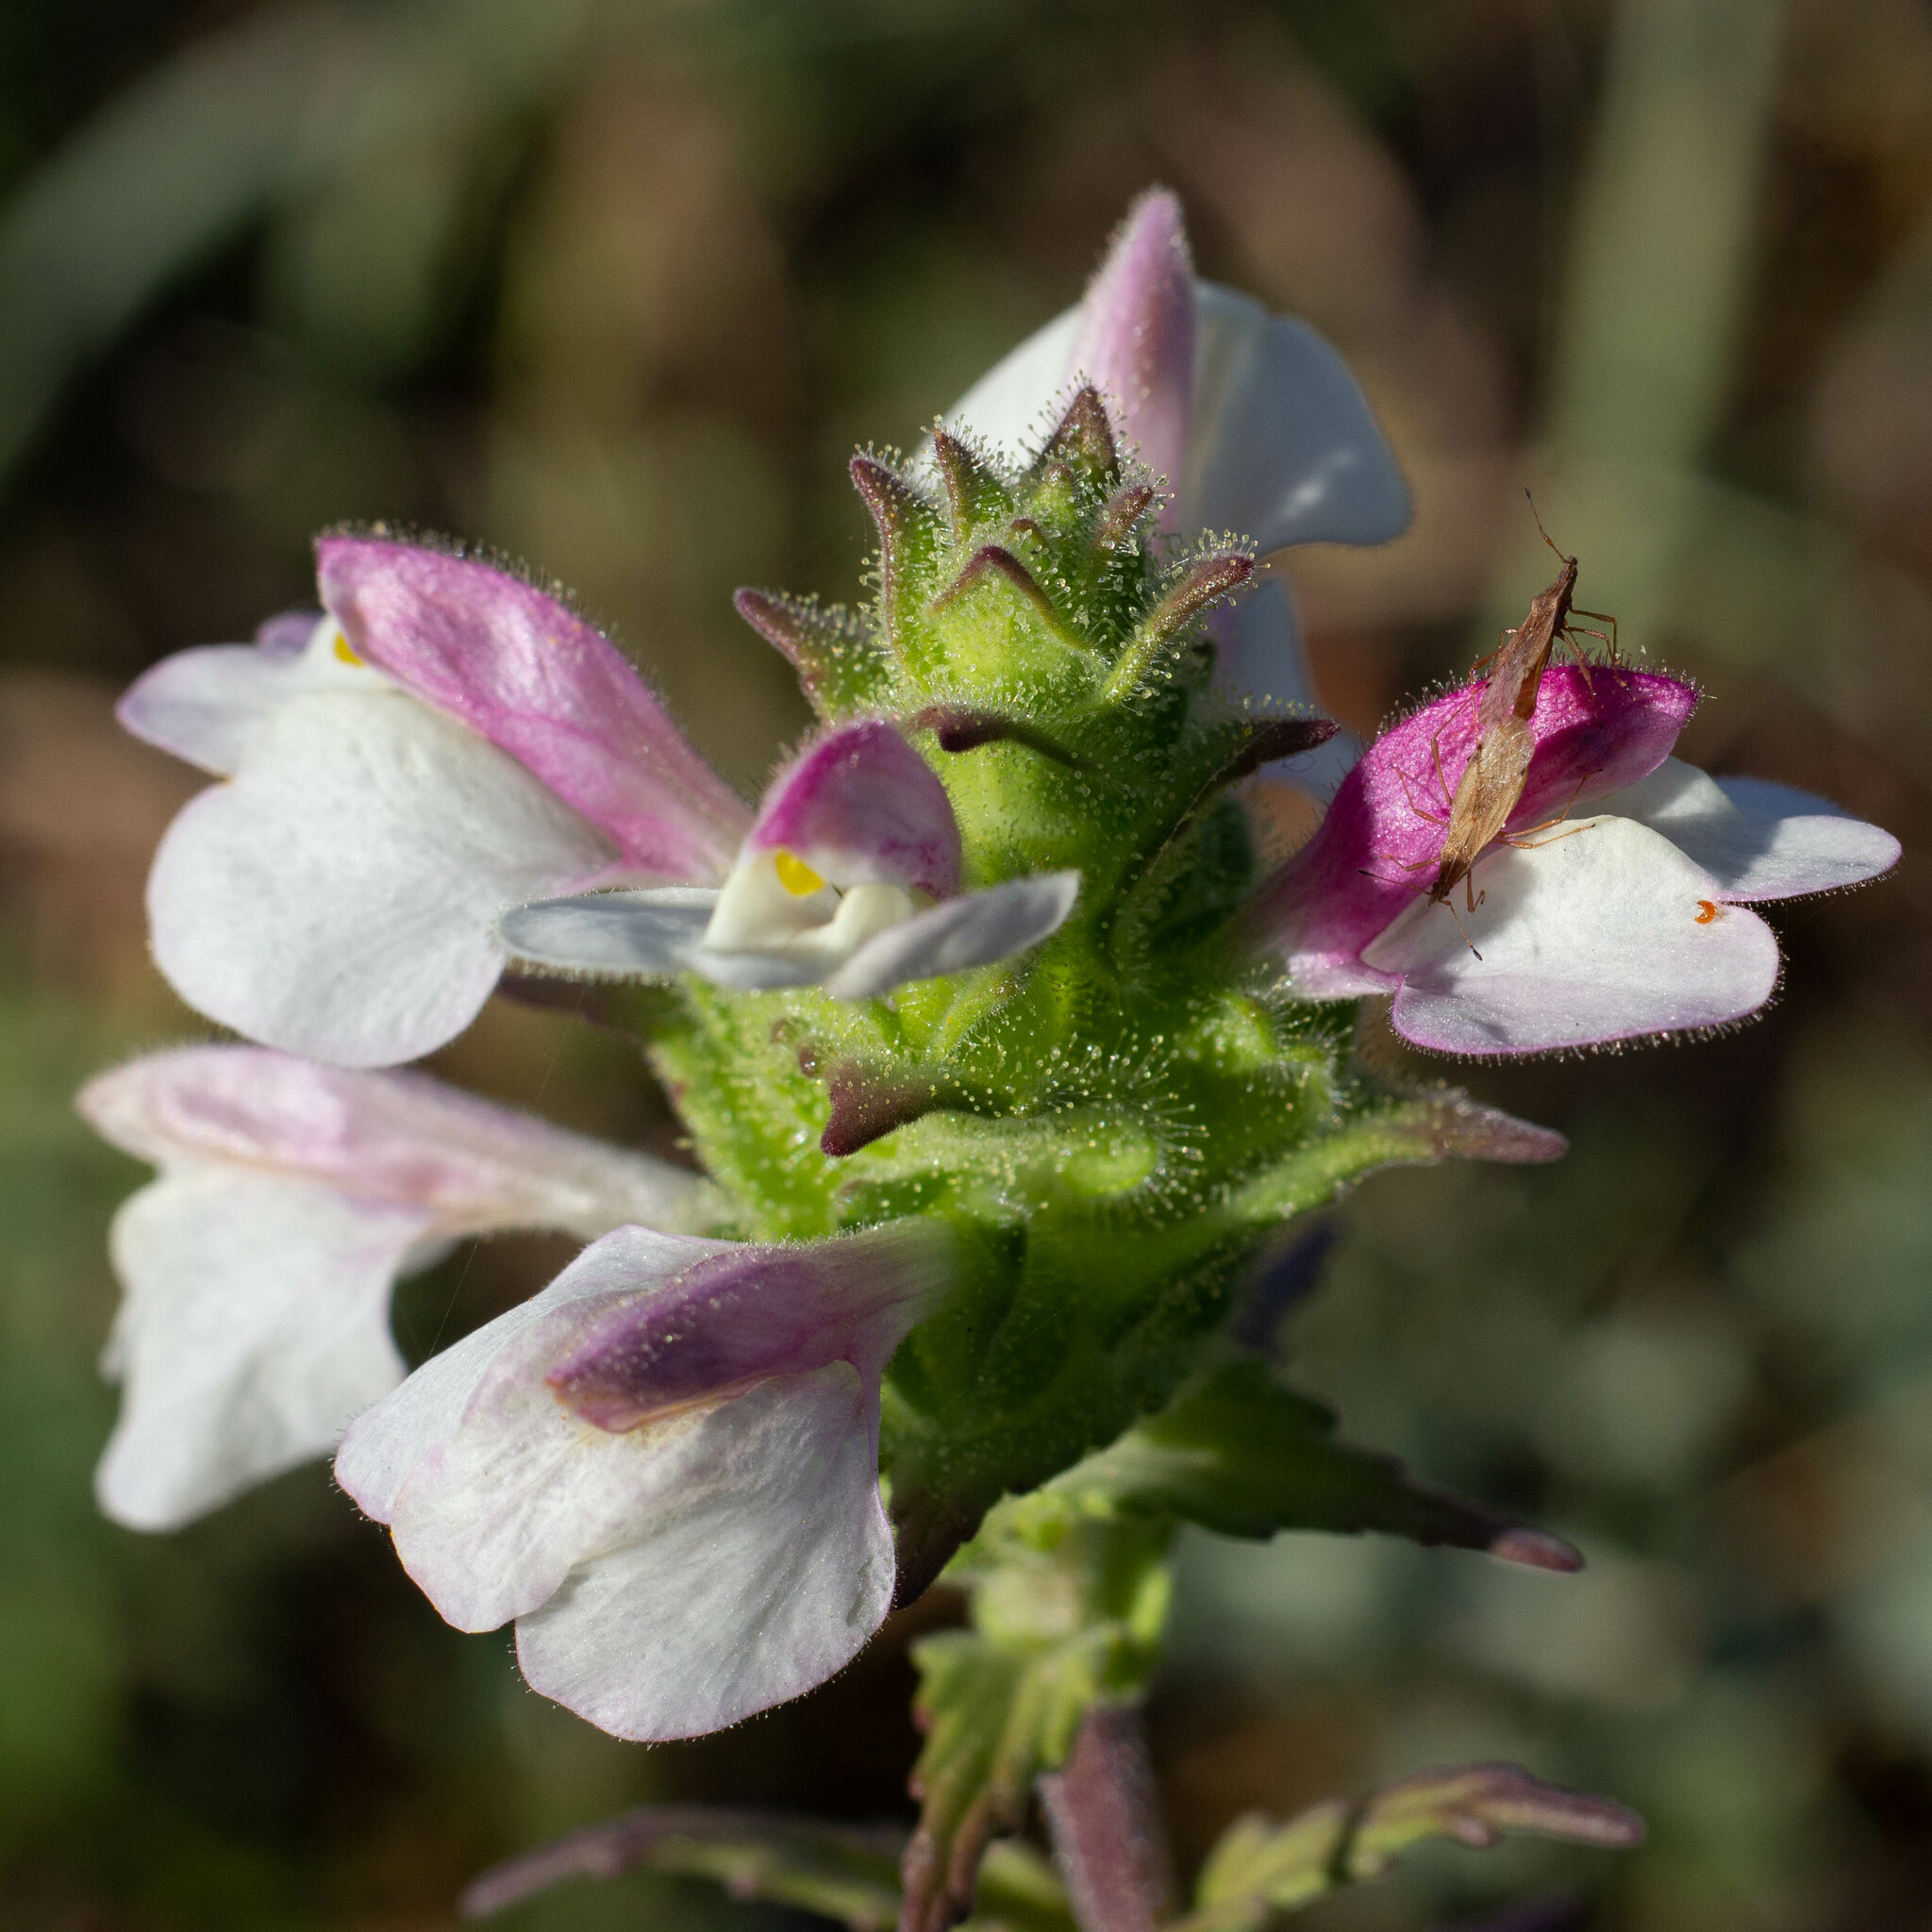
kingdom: Plantae
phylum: Tracheophyta
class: Magnoliopsida
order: Lamiales
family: Orobanchaceae
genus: Bellardia
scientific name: Bellardia trixago
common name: Mediterranean lineseed
